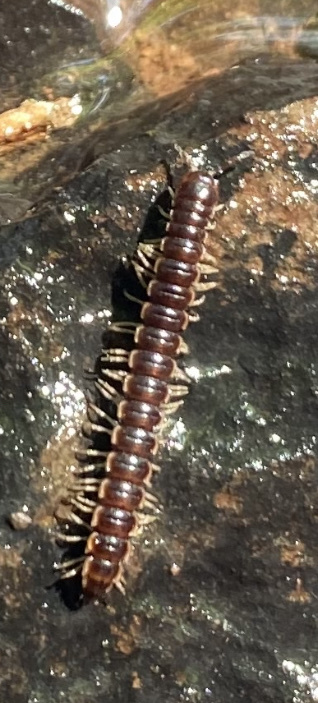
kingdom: Animalia
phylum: Arthropoda
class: Diplopoda
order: Polydesmida
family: Paradoxosomatidae
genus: Oxidus
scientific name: Oxidus gracilis
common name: Greenhouse millipede
